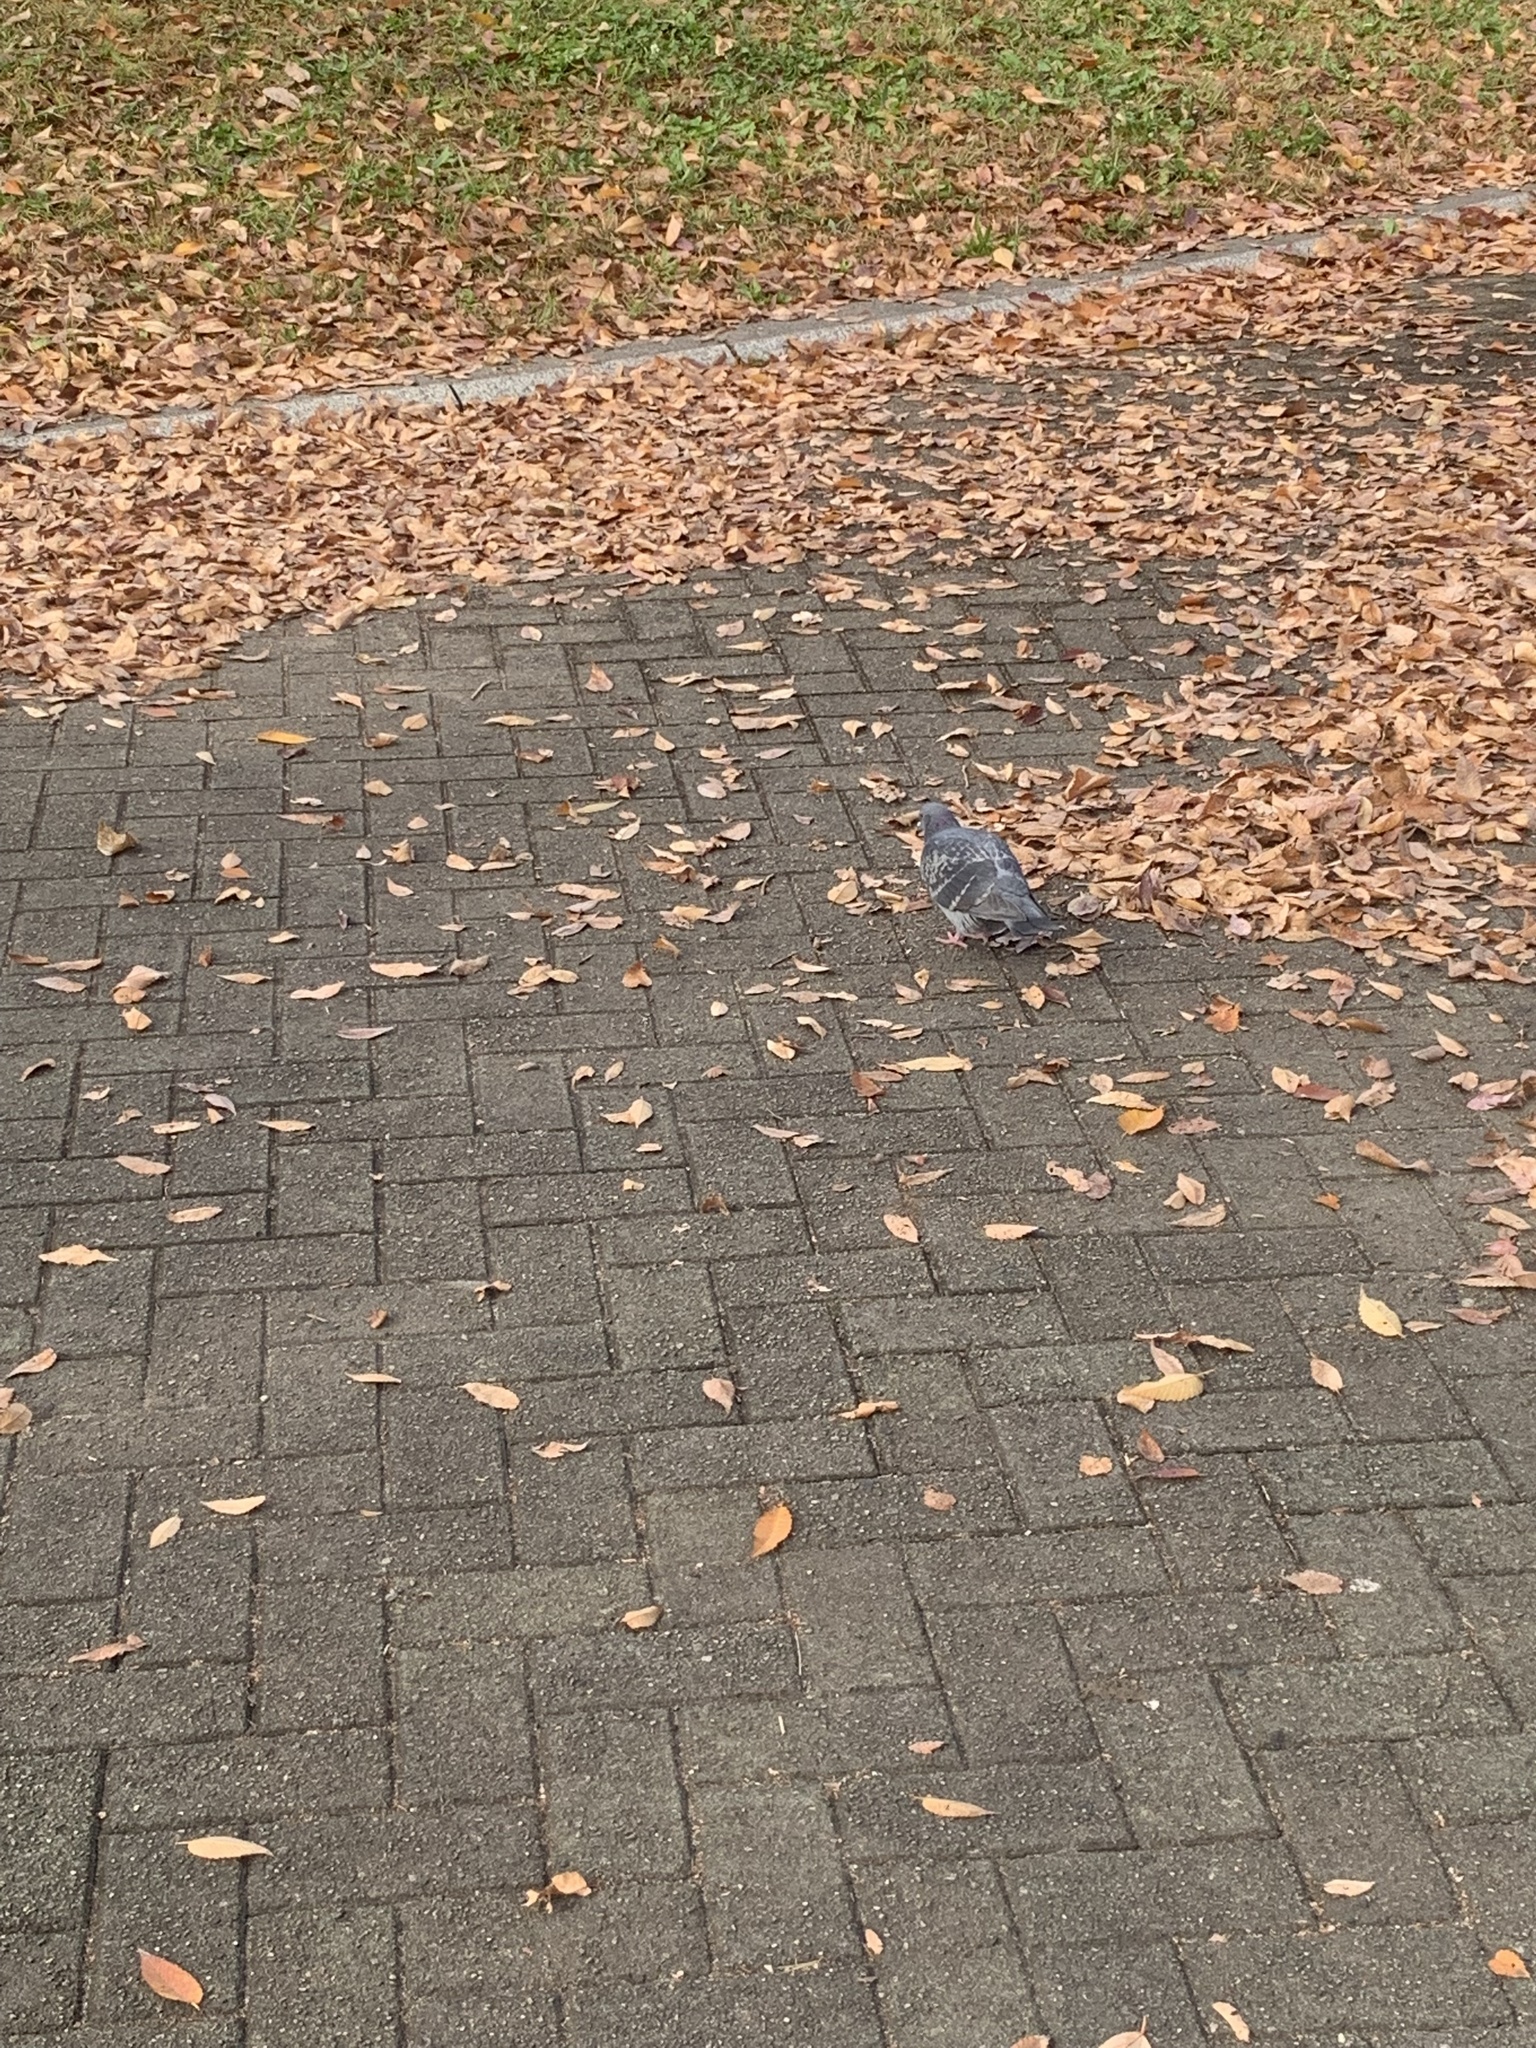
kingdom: Animalia
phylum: Chordata
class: Aves
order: Columbiformes
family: Columbidae
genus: Columba
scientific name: Columba livia
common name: Rock pigeon
